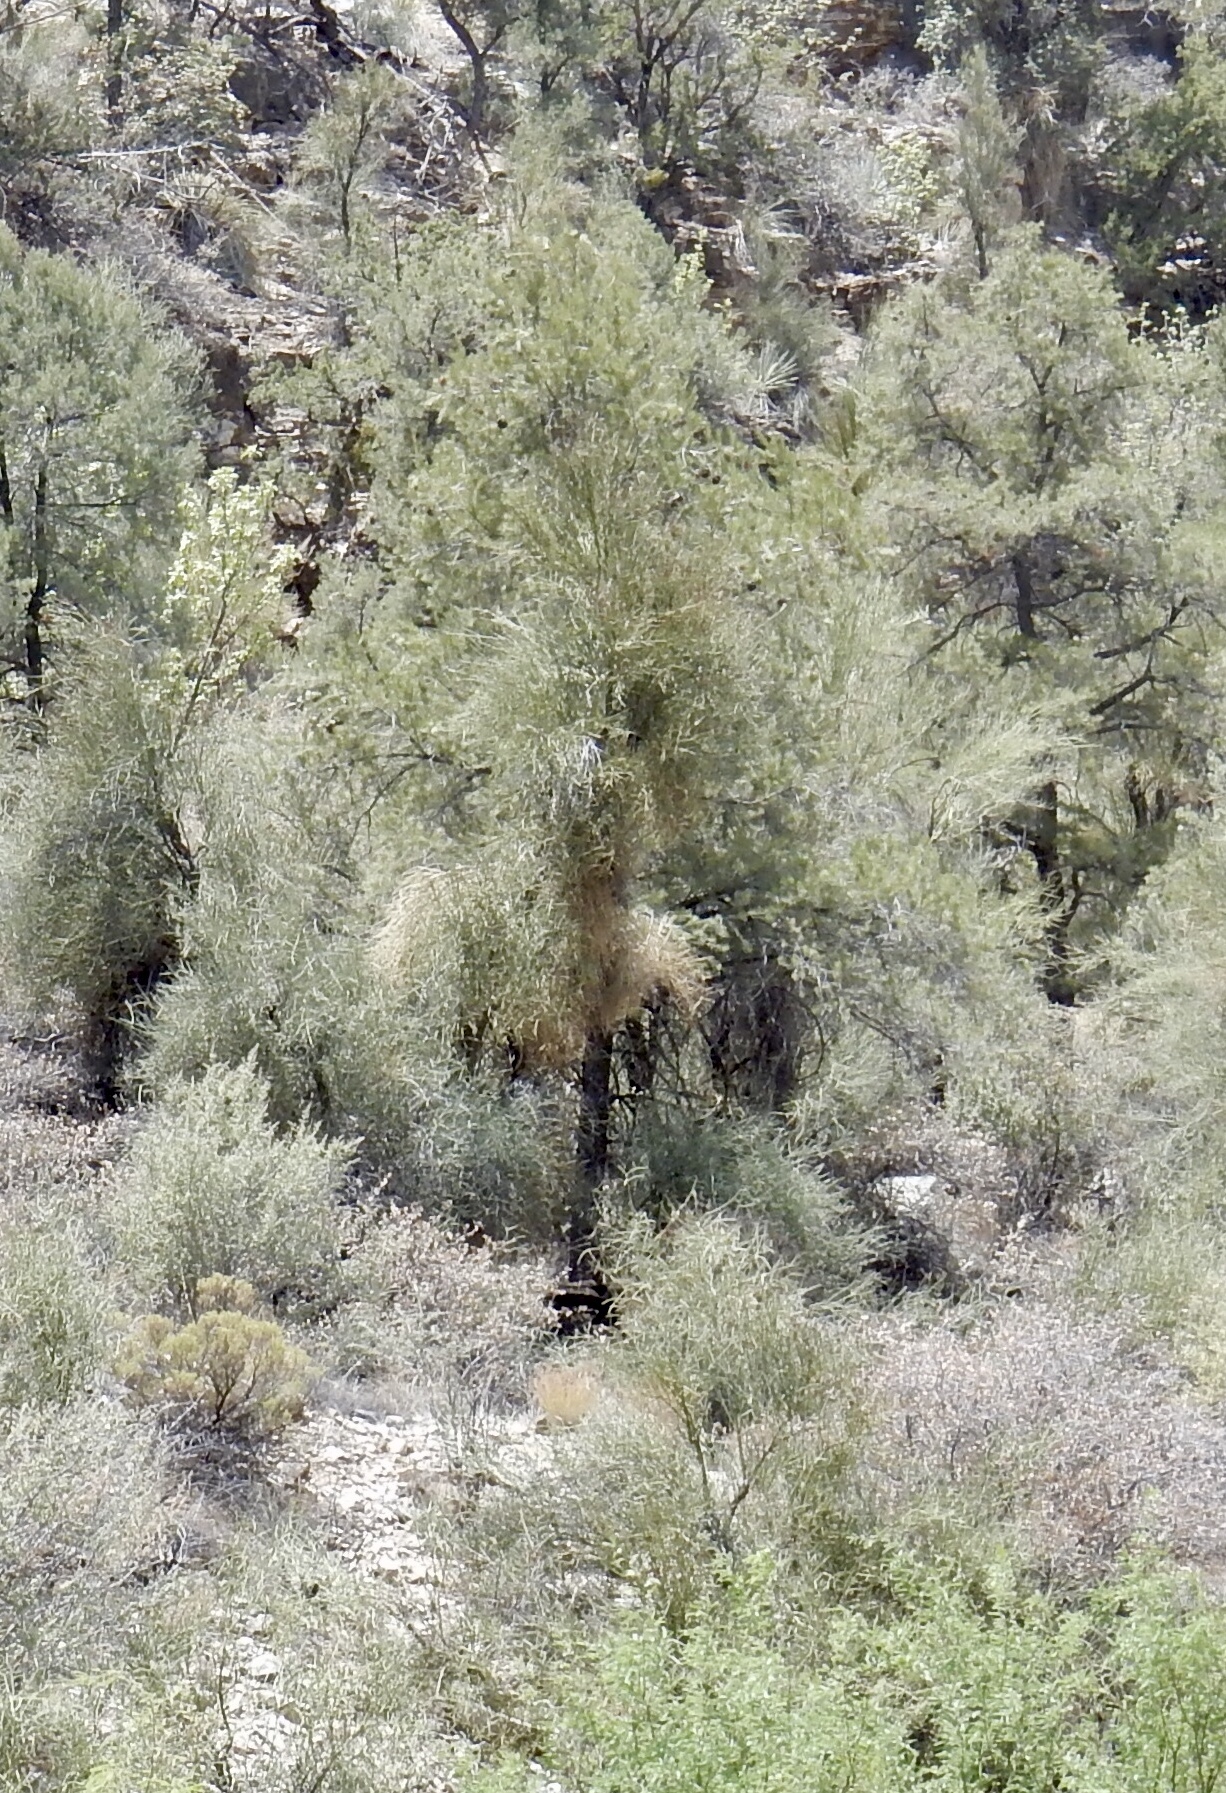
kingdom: Plantae
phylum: Tracheophyta
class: Magnoliopsida
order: Celastrales
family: Celastraceae
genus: Canotia
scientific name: Canotia holacantha
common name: Crucifixion thorns
